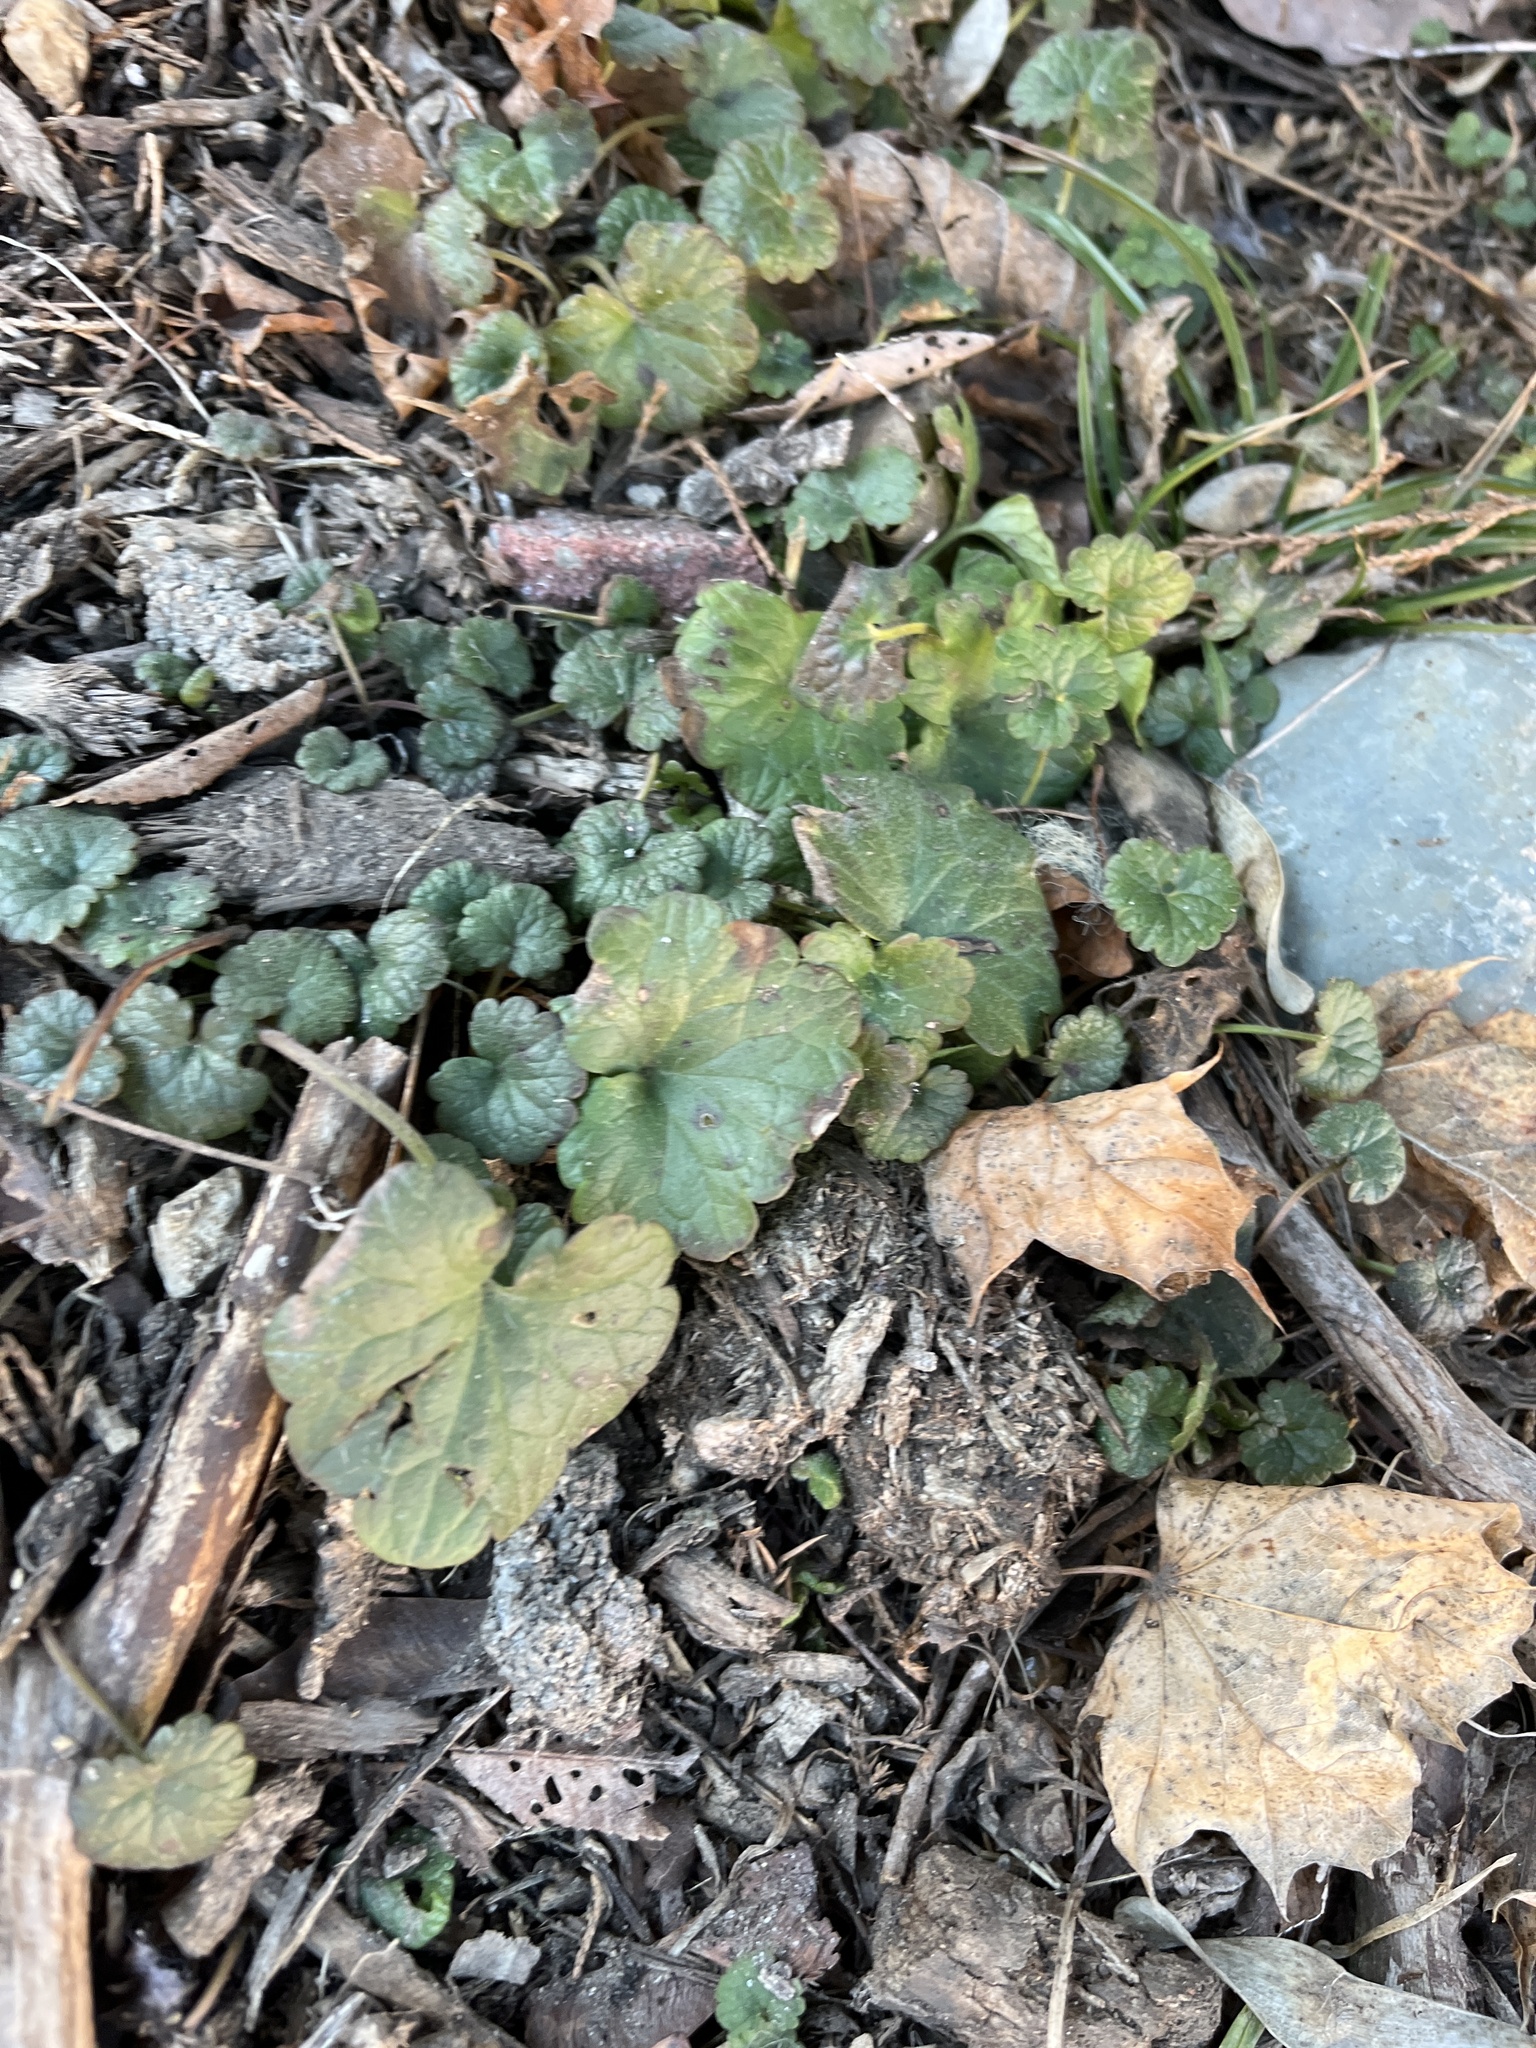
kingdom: Plantae
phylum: Tracheophyta
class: Magnoliopsida
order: Lamiales
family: Lamiaceae
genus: Glechoma
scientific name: Glechoma hederacea
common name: Ground ivy
